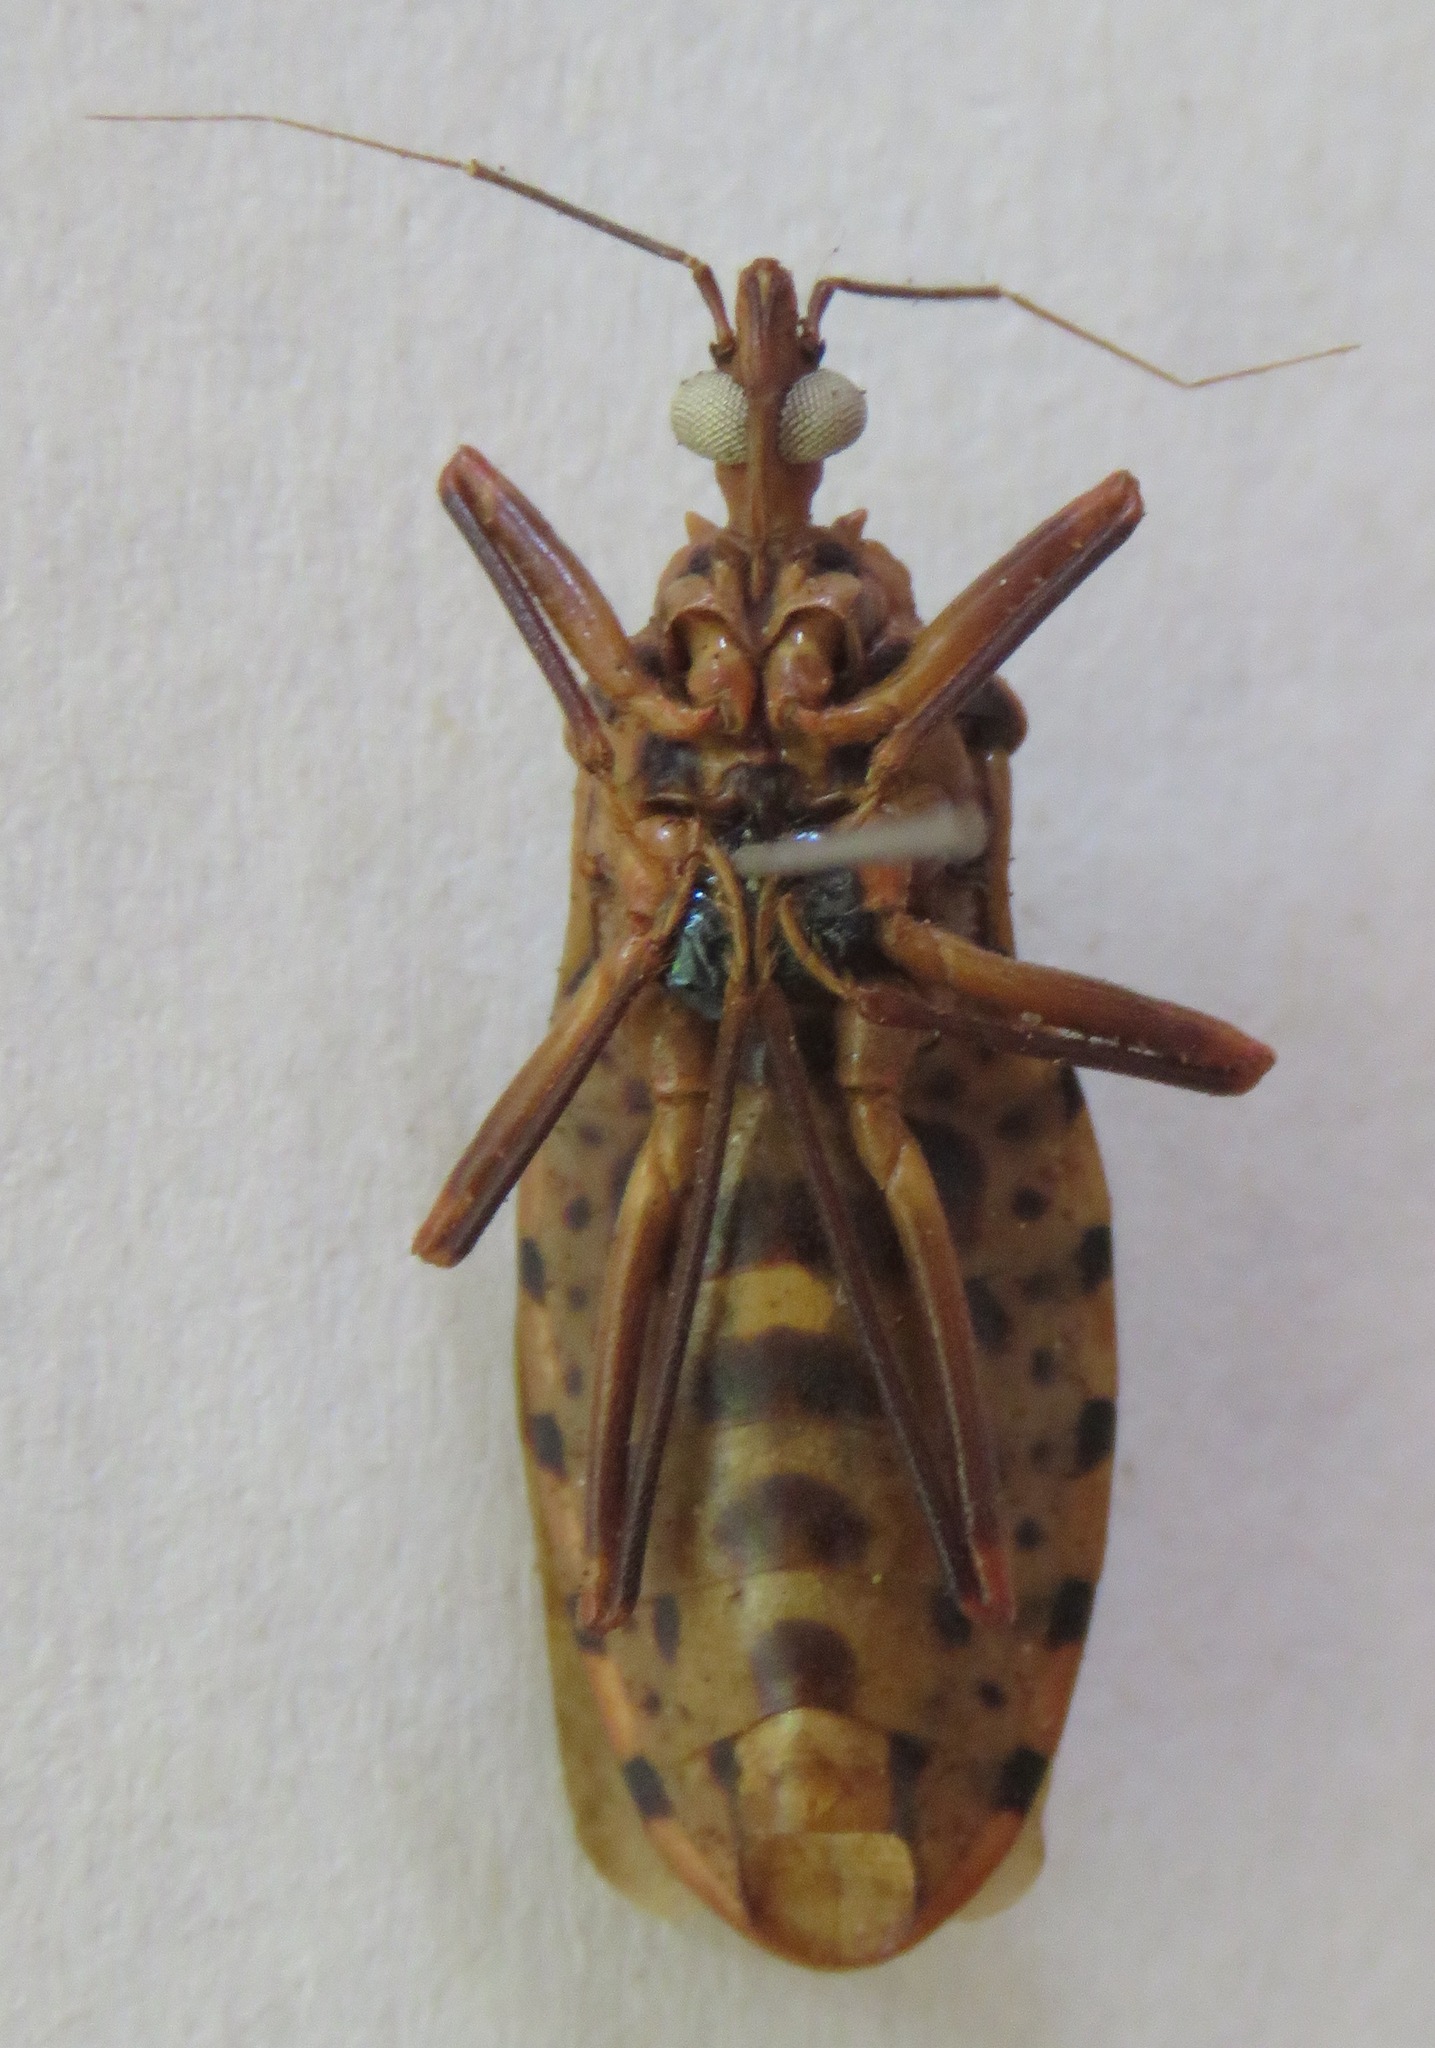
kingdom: Animalia
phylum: Arthropoda
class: Insecta
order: Hemiptera
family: Reduviidae
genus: Panstrongylus
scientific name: Panstrongylus geniculatus
